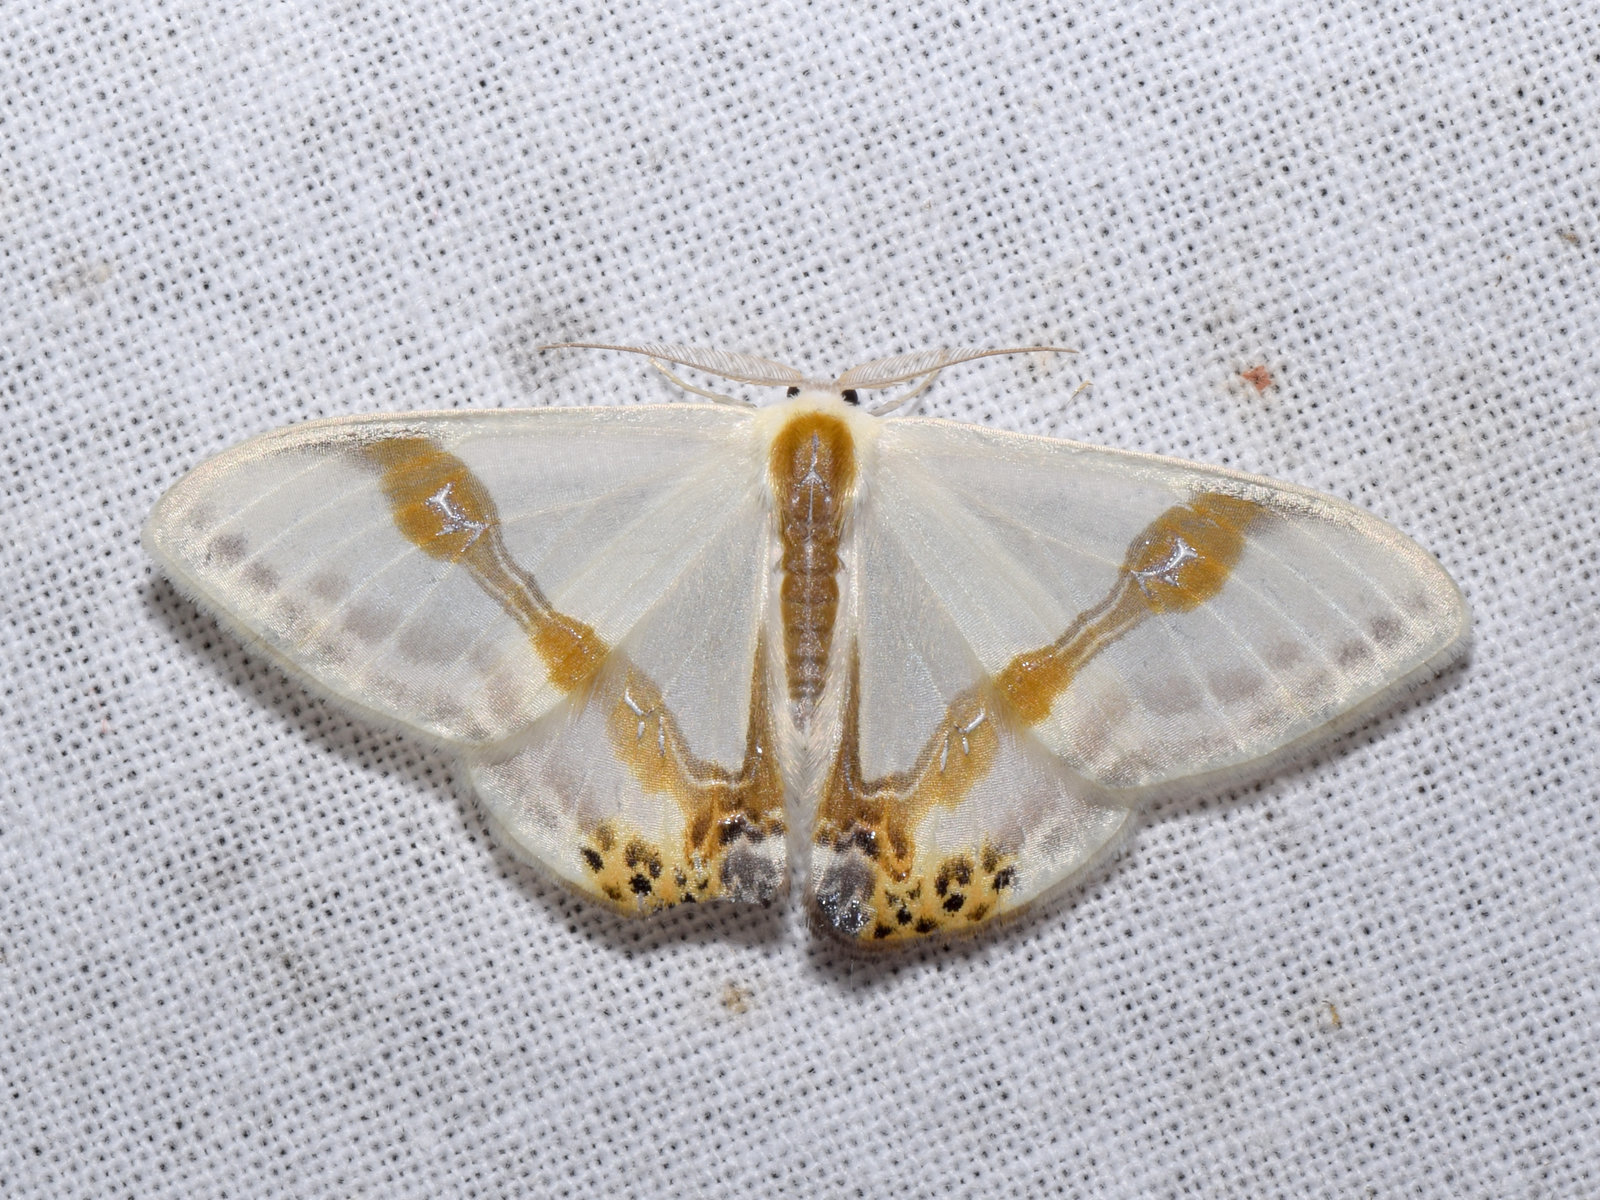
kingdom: Animalia
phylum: Arthropoda
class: Insecta
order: Lepidoptera
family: Drepanidae
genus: Macrocilix
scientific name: Macrocilix mysticata
